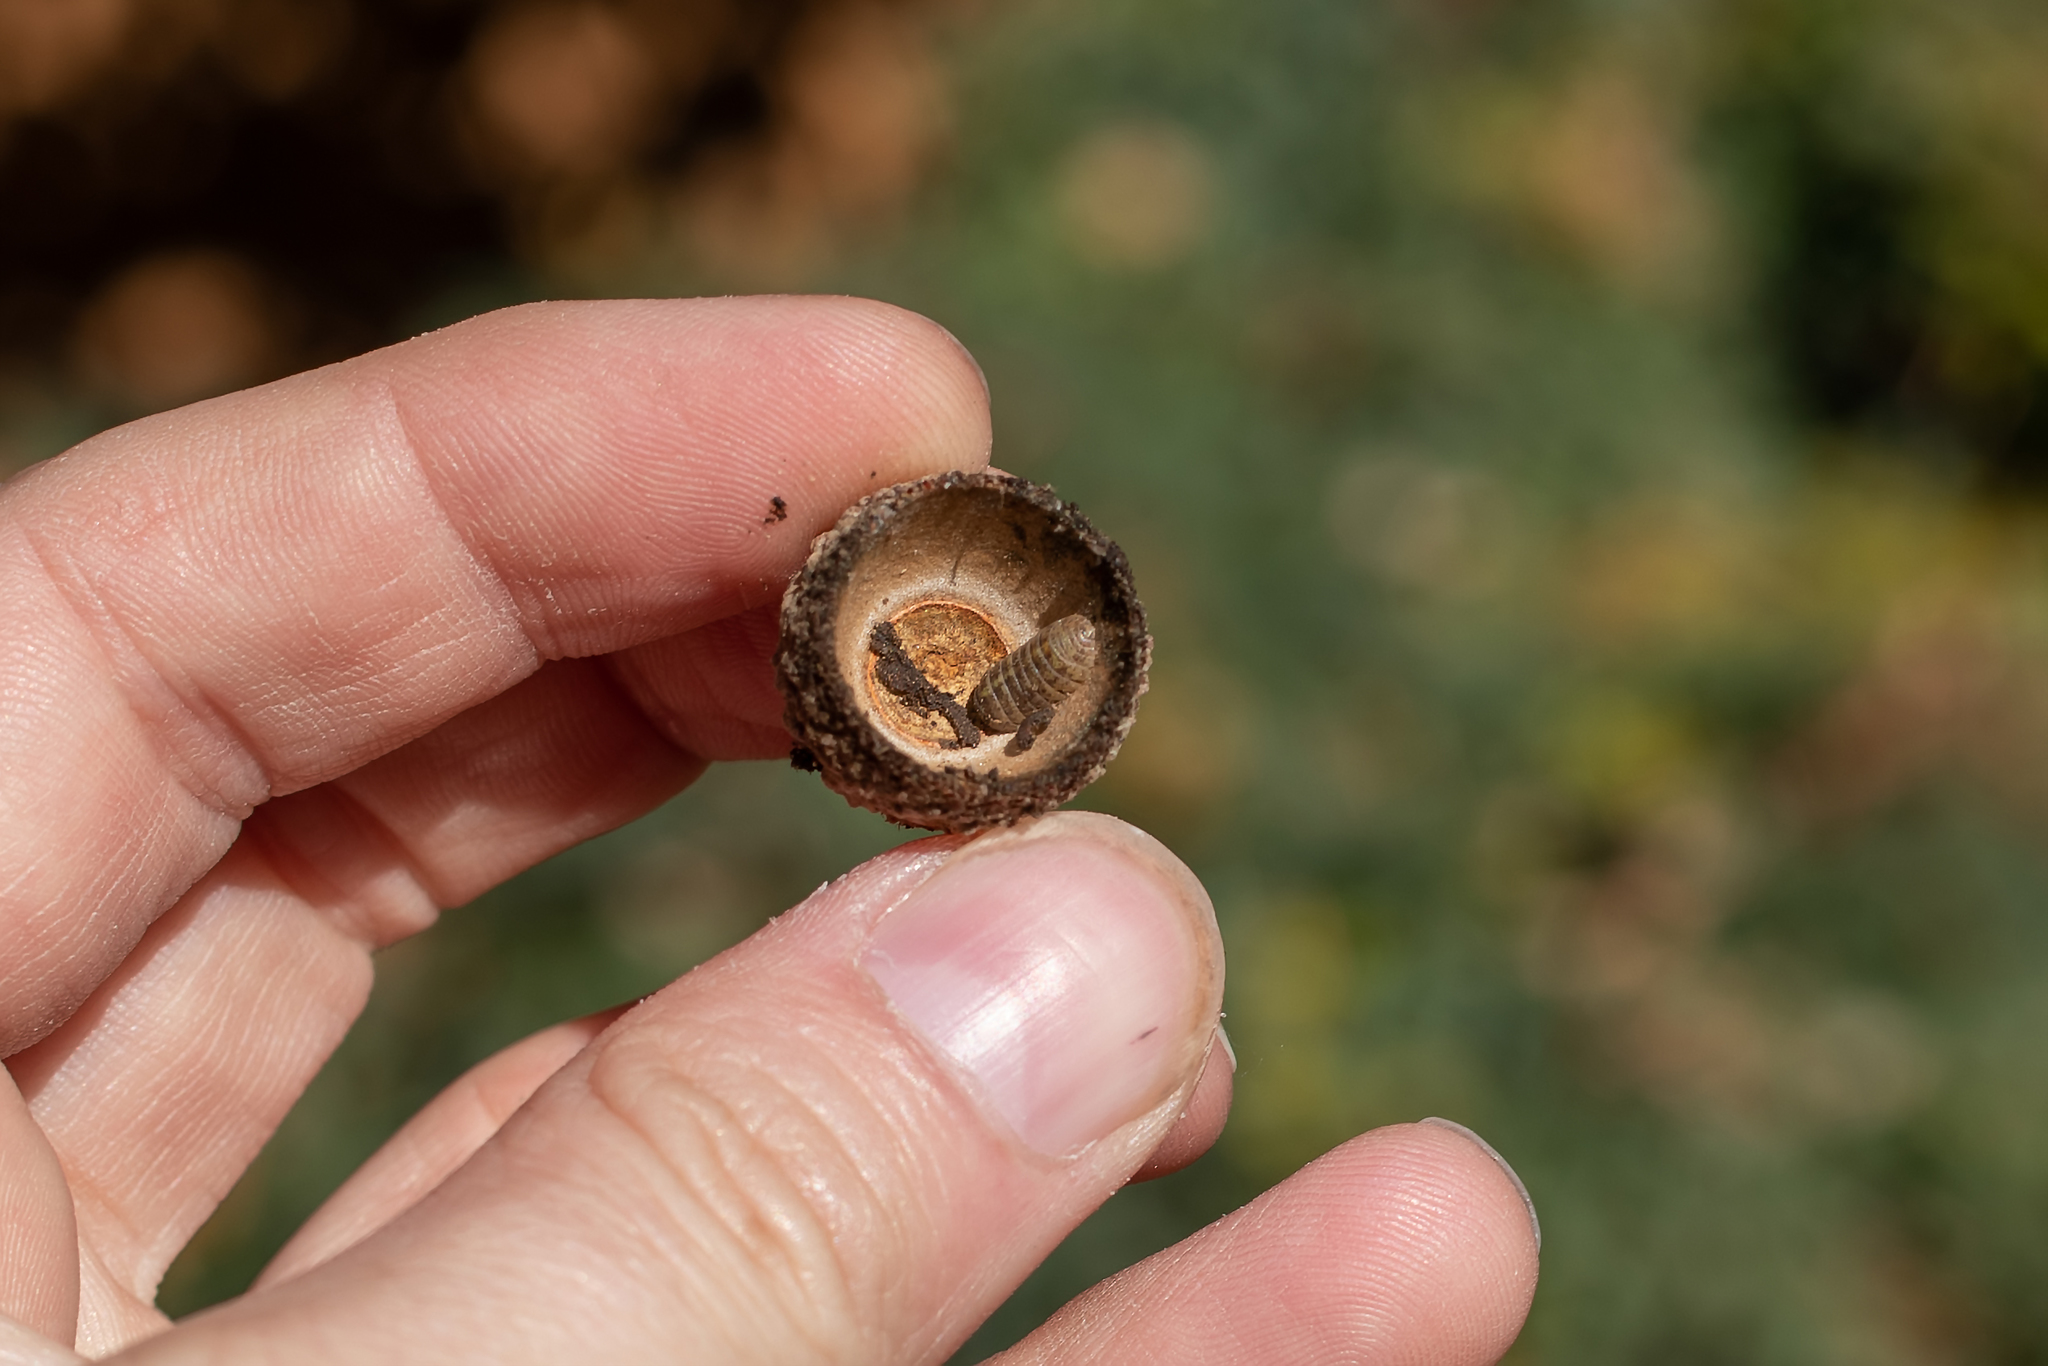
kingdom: Animalia
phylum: Arthropoda
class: Malacostraca
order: Isopoda
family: Armadillidiidae
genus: Armadillidium
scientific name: Armadillidium vulgare
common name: Common pill woodlouse
